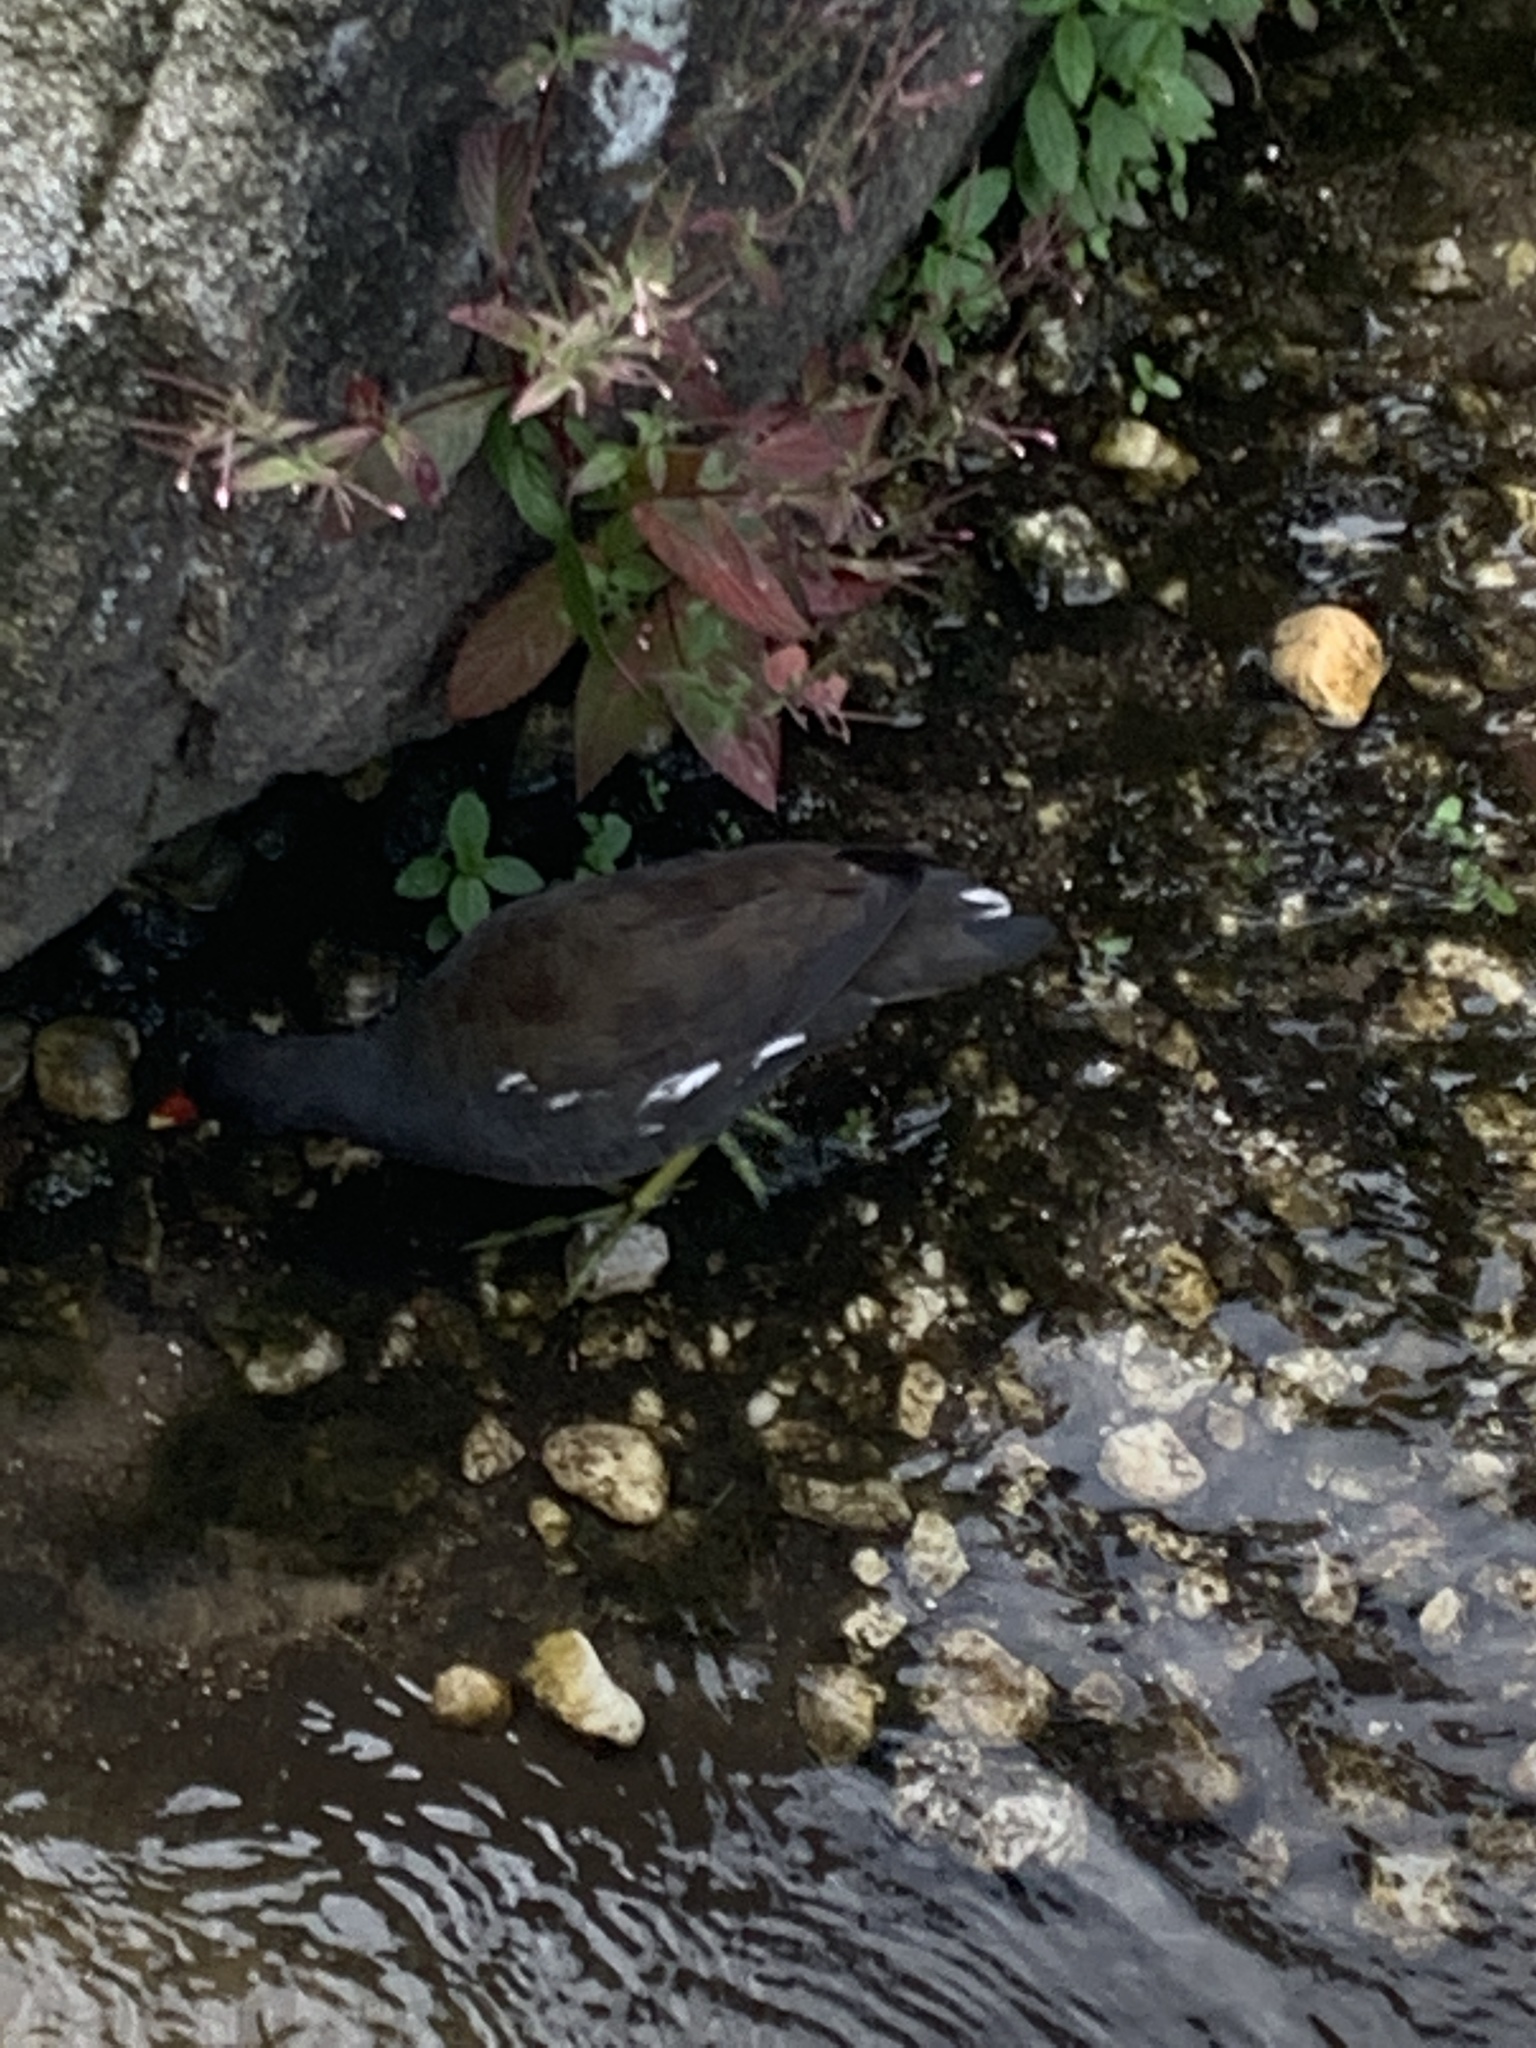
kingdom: Animalia
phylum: Chordata
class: Aves
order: Gruiformes
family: Rallidae
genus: Gallinula
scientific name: Gallinula chloropus
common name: Common moorhen
